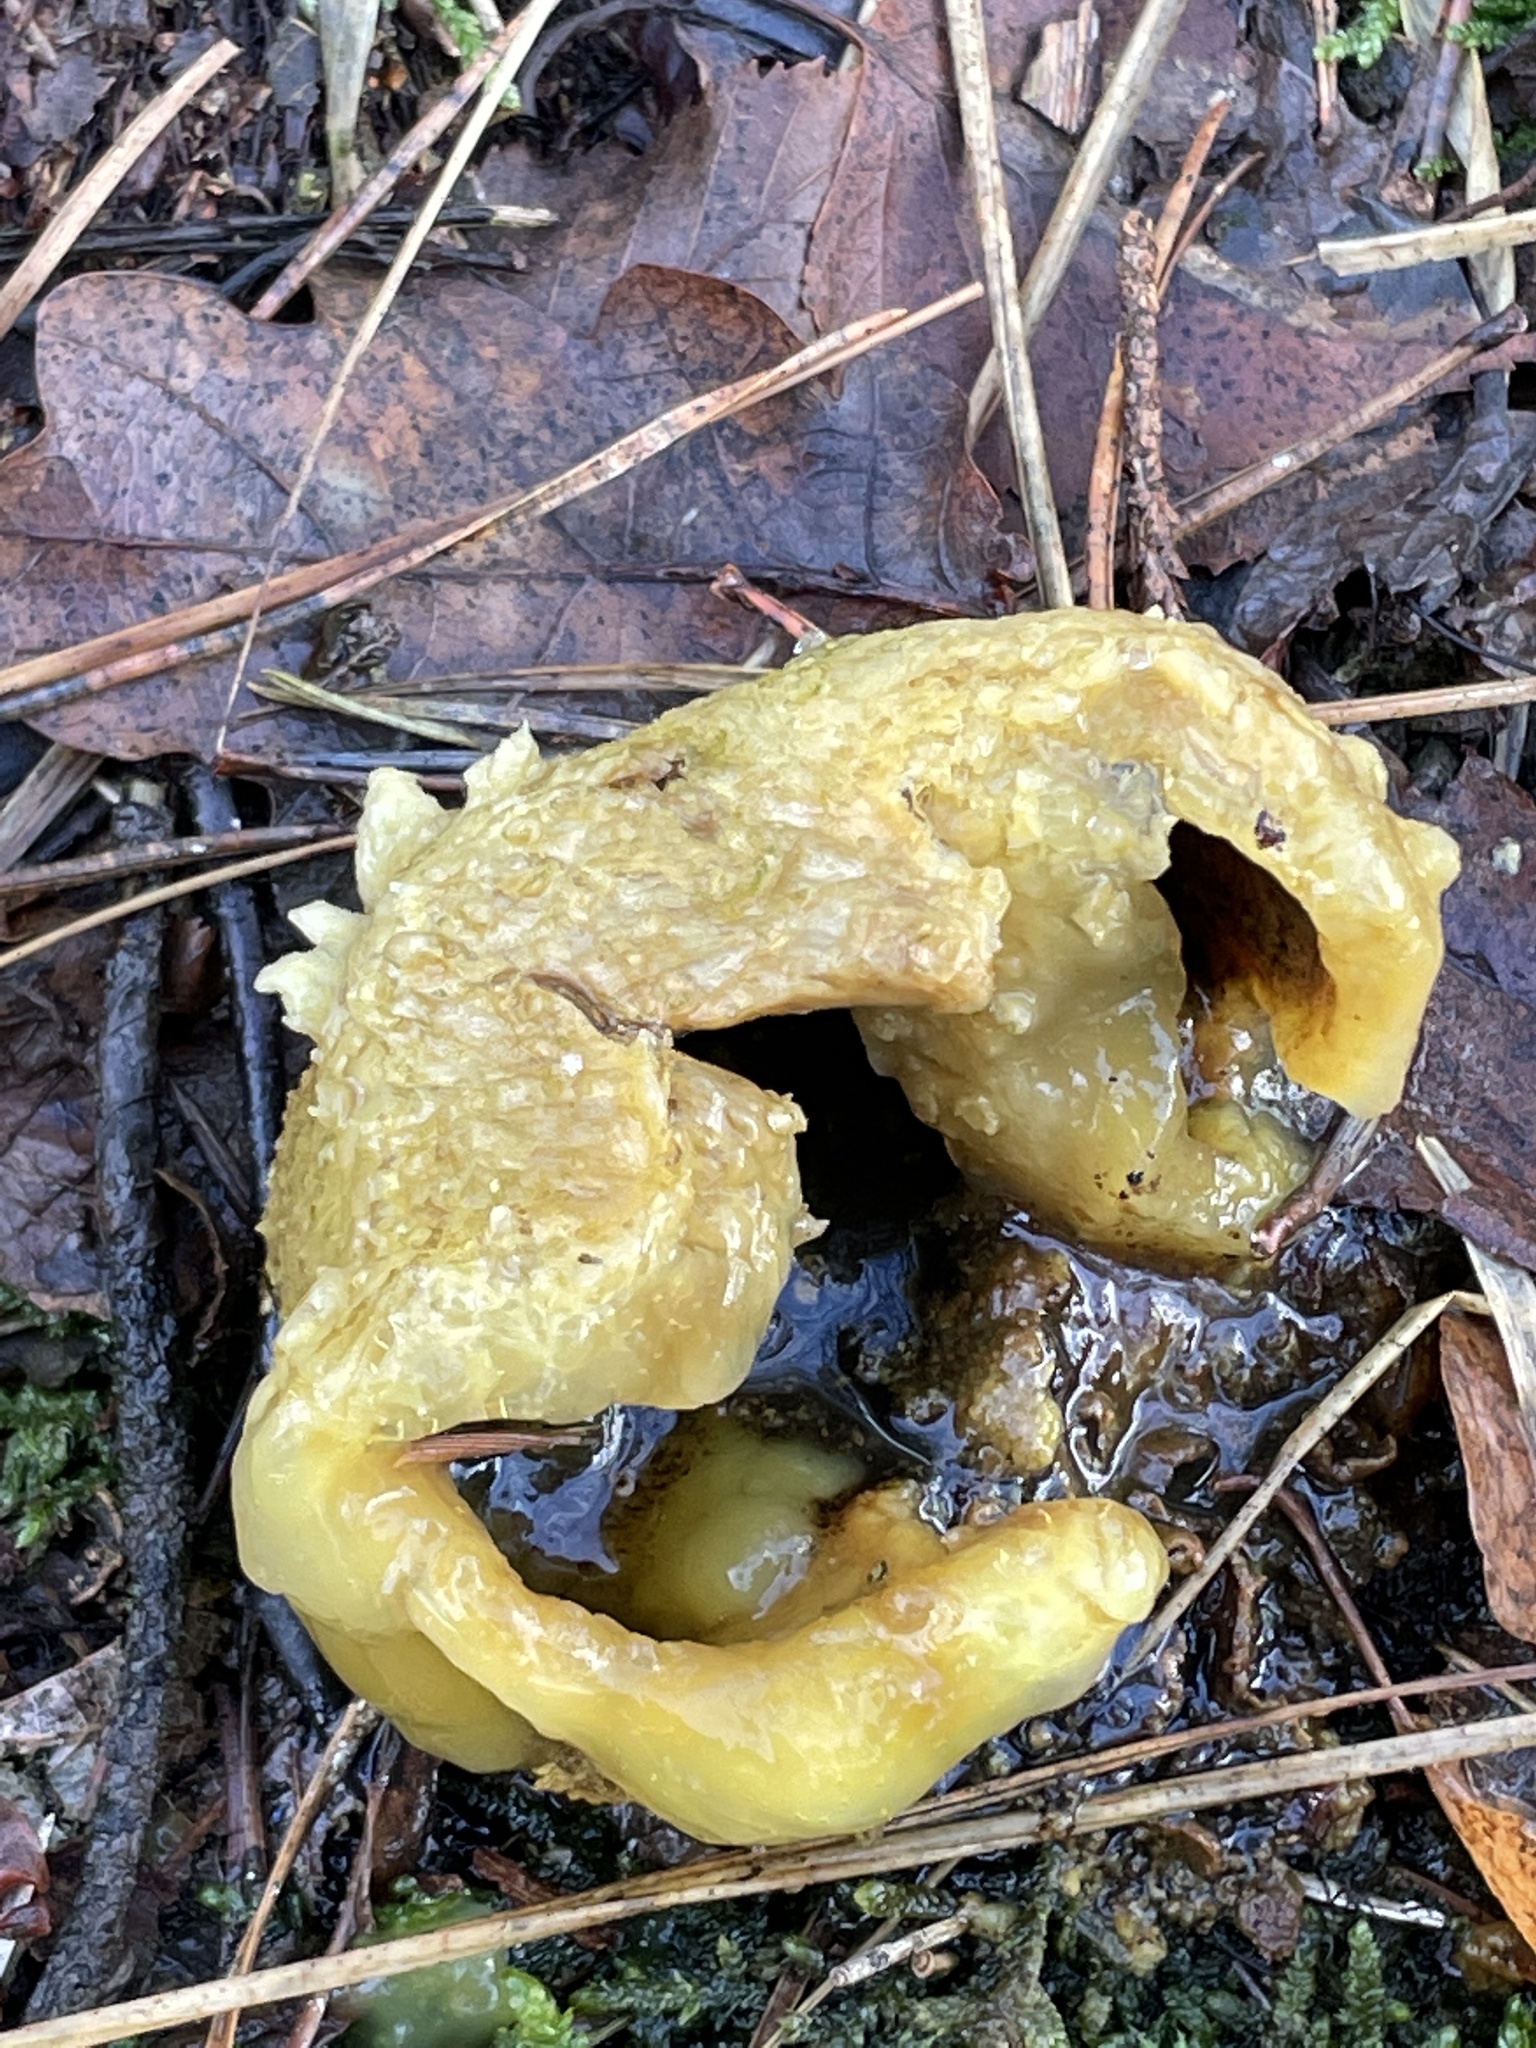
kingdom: Fungi
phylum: Basidiomycota
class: Agaricomycetes
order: Boletales
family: Sclerodermataceae
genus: Scleroderma
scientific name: Scleroderma citrinum
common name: Common earthball
